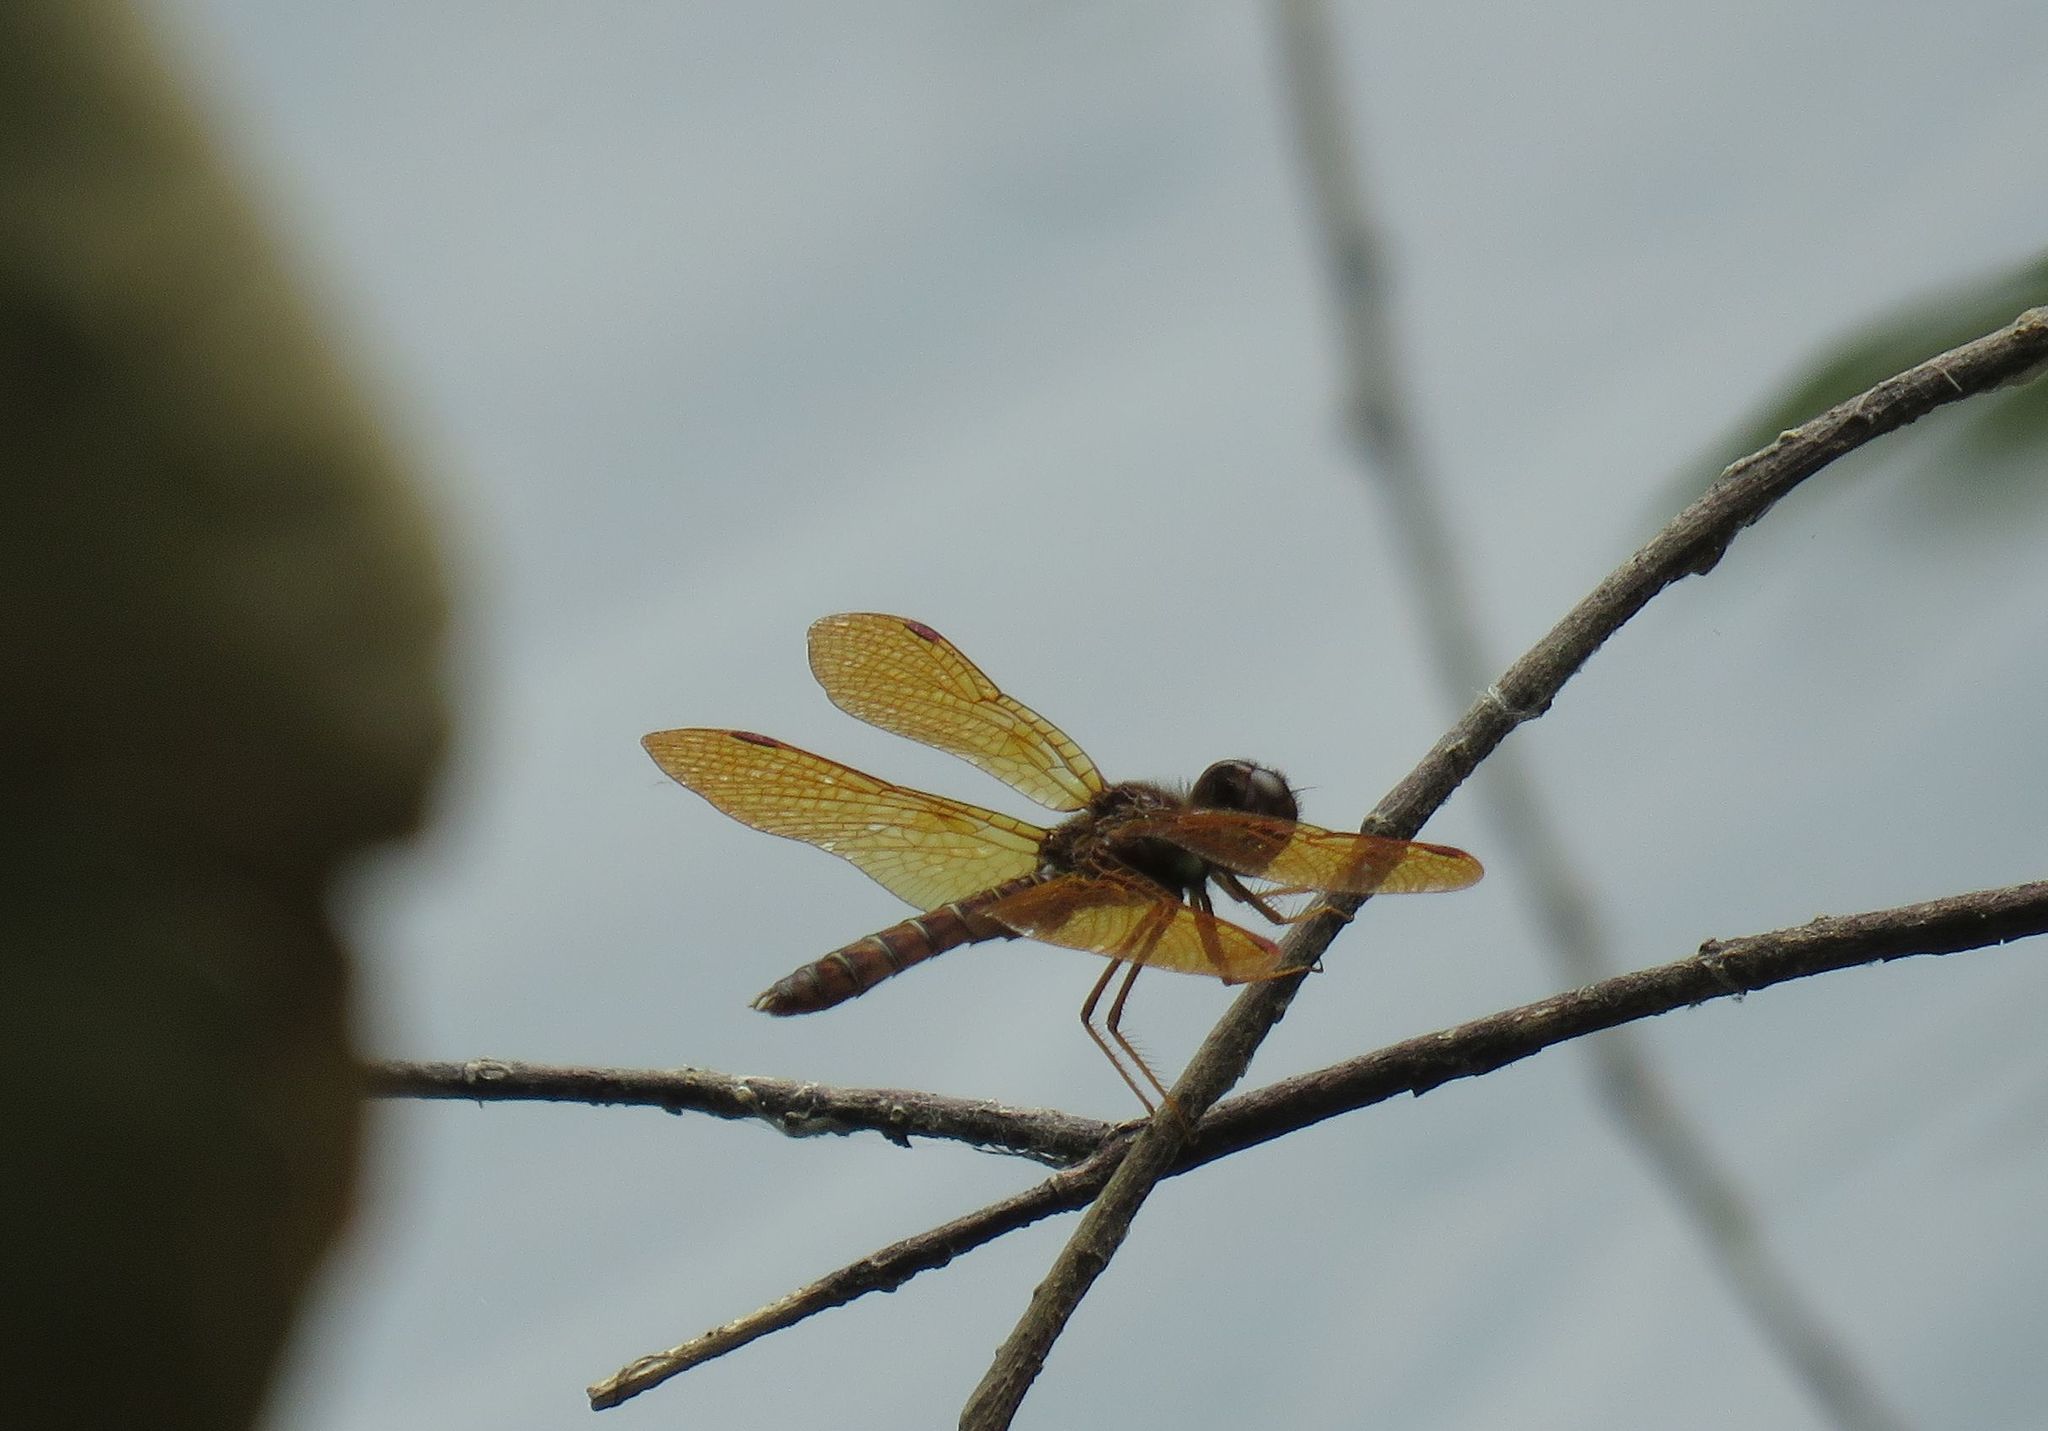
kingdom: Animalia
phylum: Arthropoda
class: Insecta
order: Odonata
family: Libellulidae
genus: Perithemis
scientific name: Perithemis tenera
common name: Eastern amberwing
